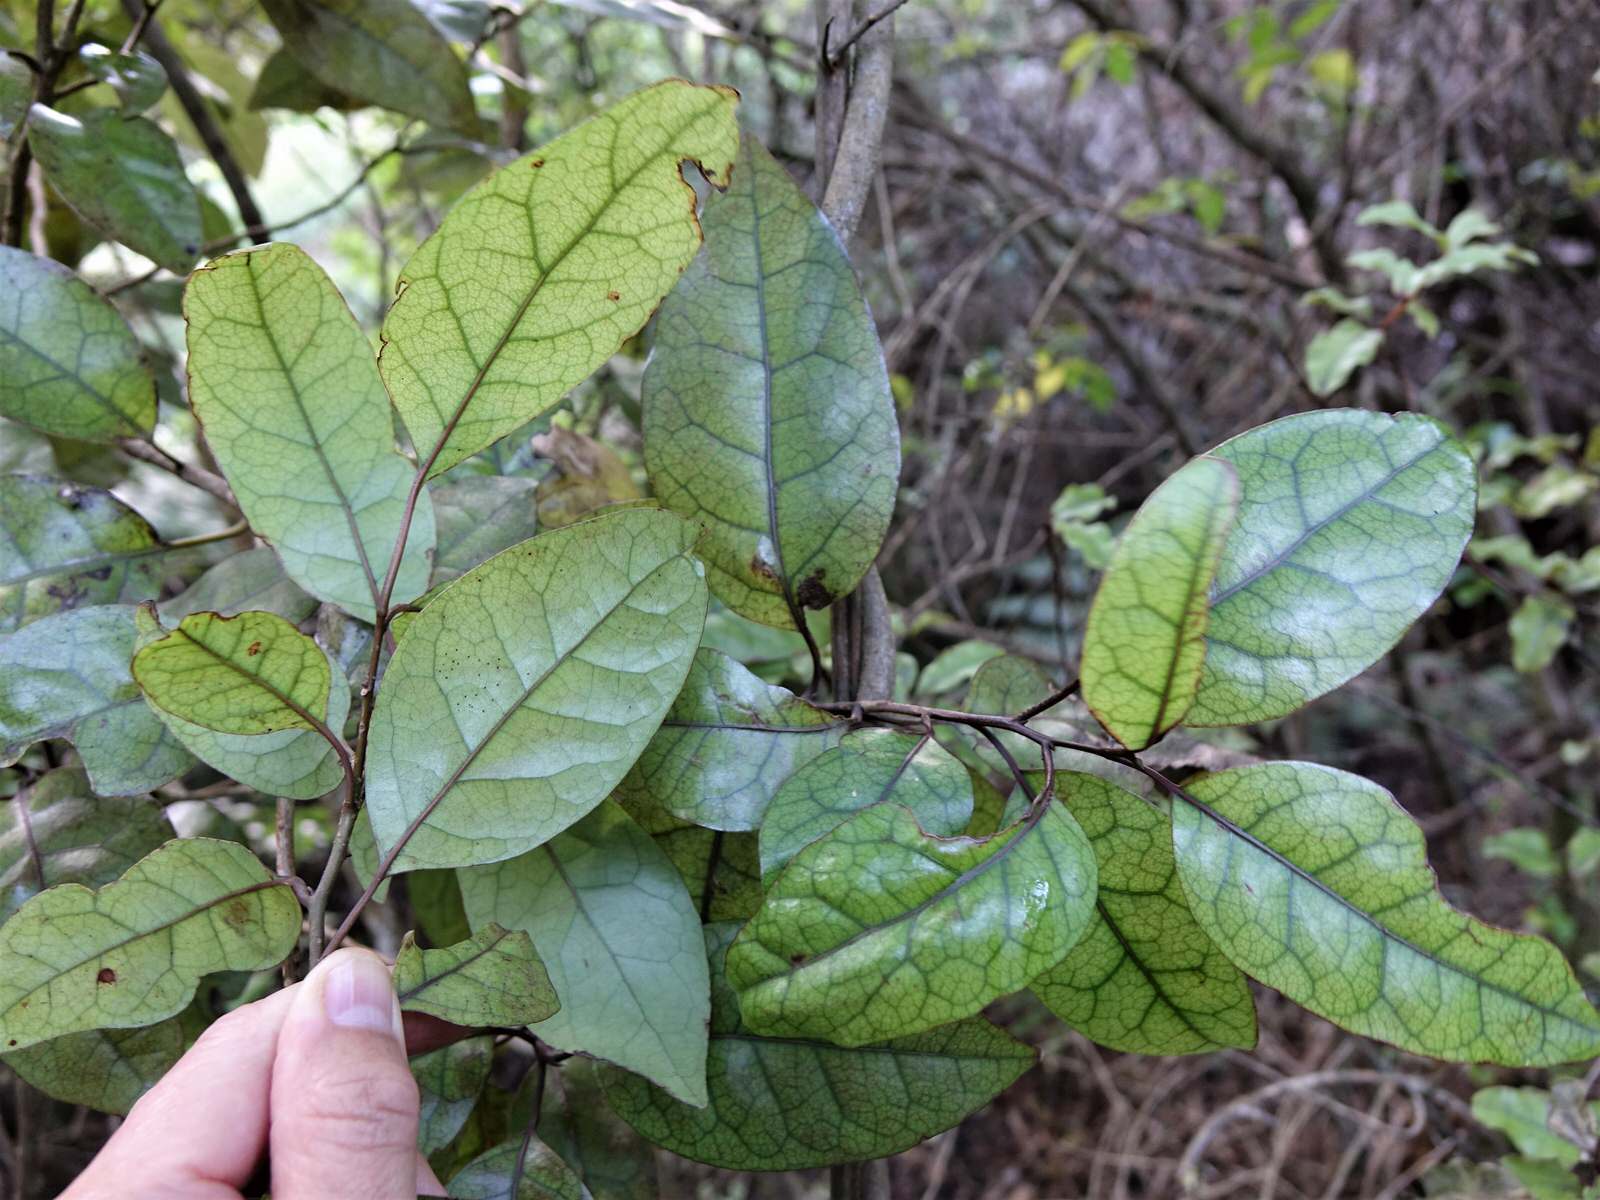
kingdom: Plantae
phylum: Tracheophyta
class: Magnoliopsida
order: Laurales
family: Lauraceae
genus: Litsea
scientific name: Litsea calicaris
